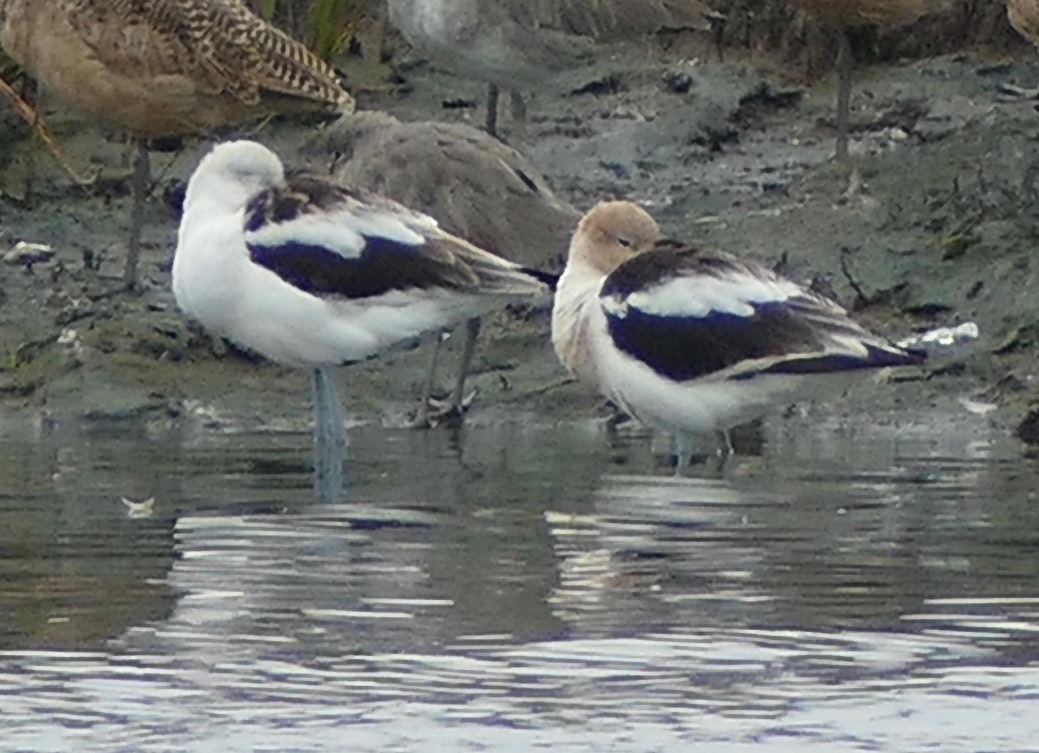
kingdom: Animalia
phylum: Chordata
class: Aves
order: Charadriiformes
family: Recurvirostridae
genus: Recurvirostra
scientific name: Recurvirostra americana
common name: American avocet
